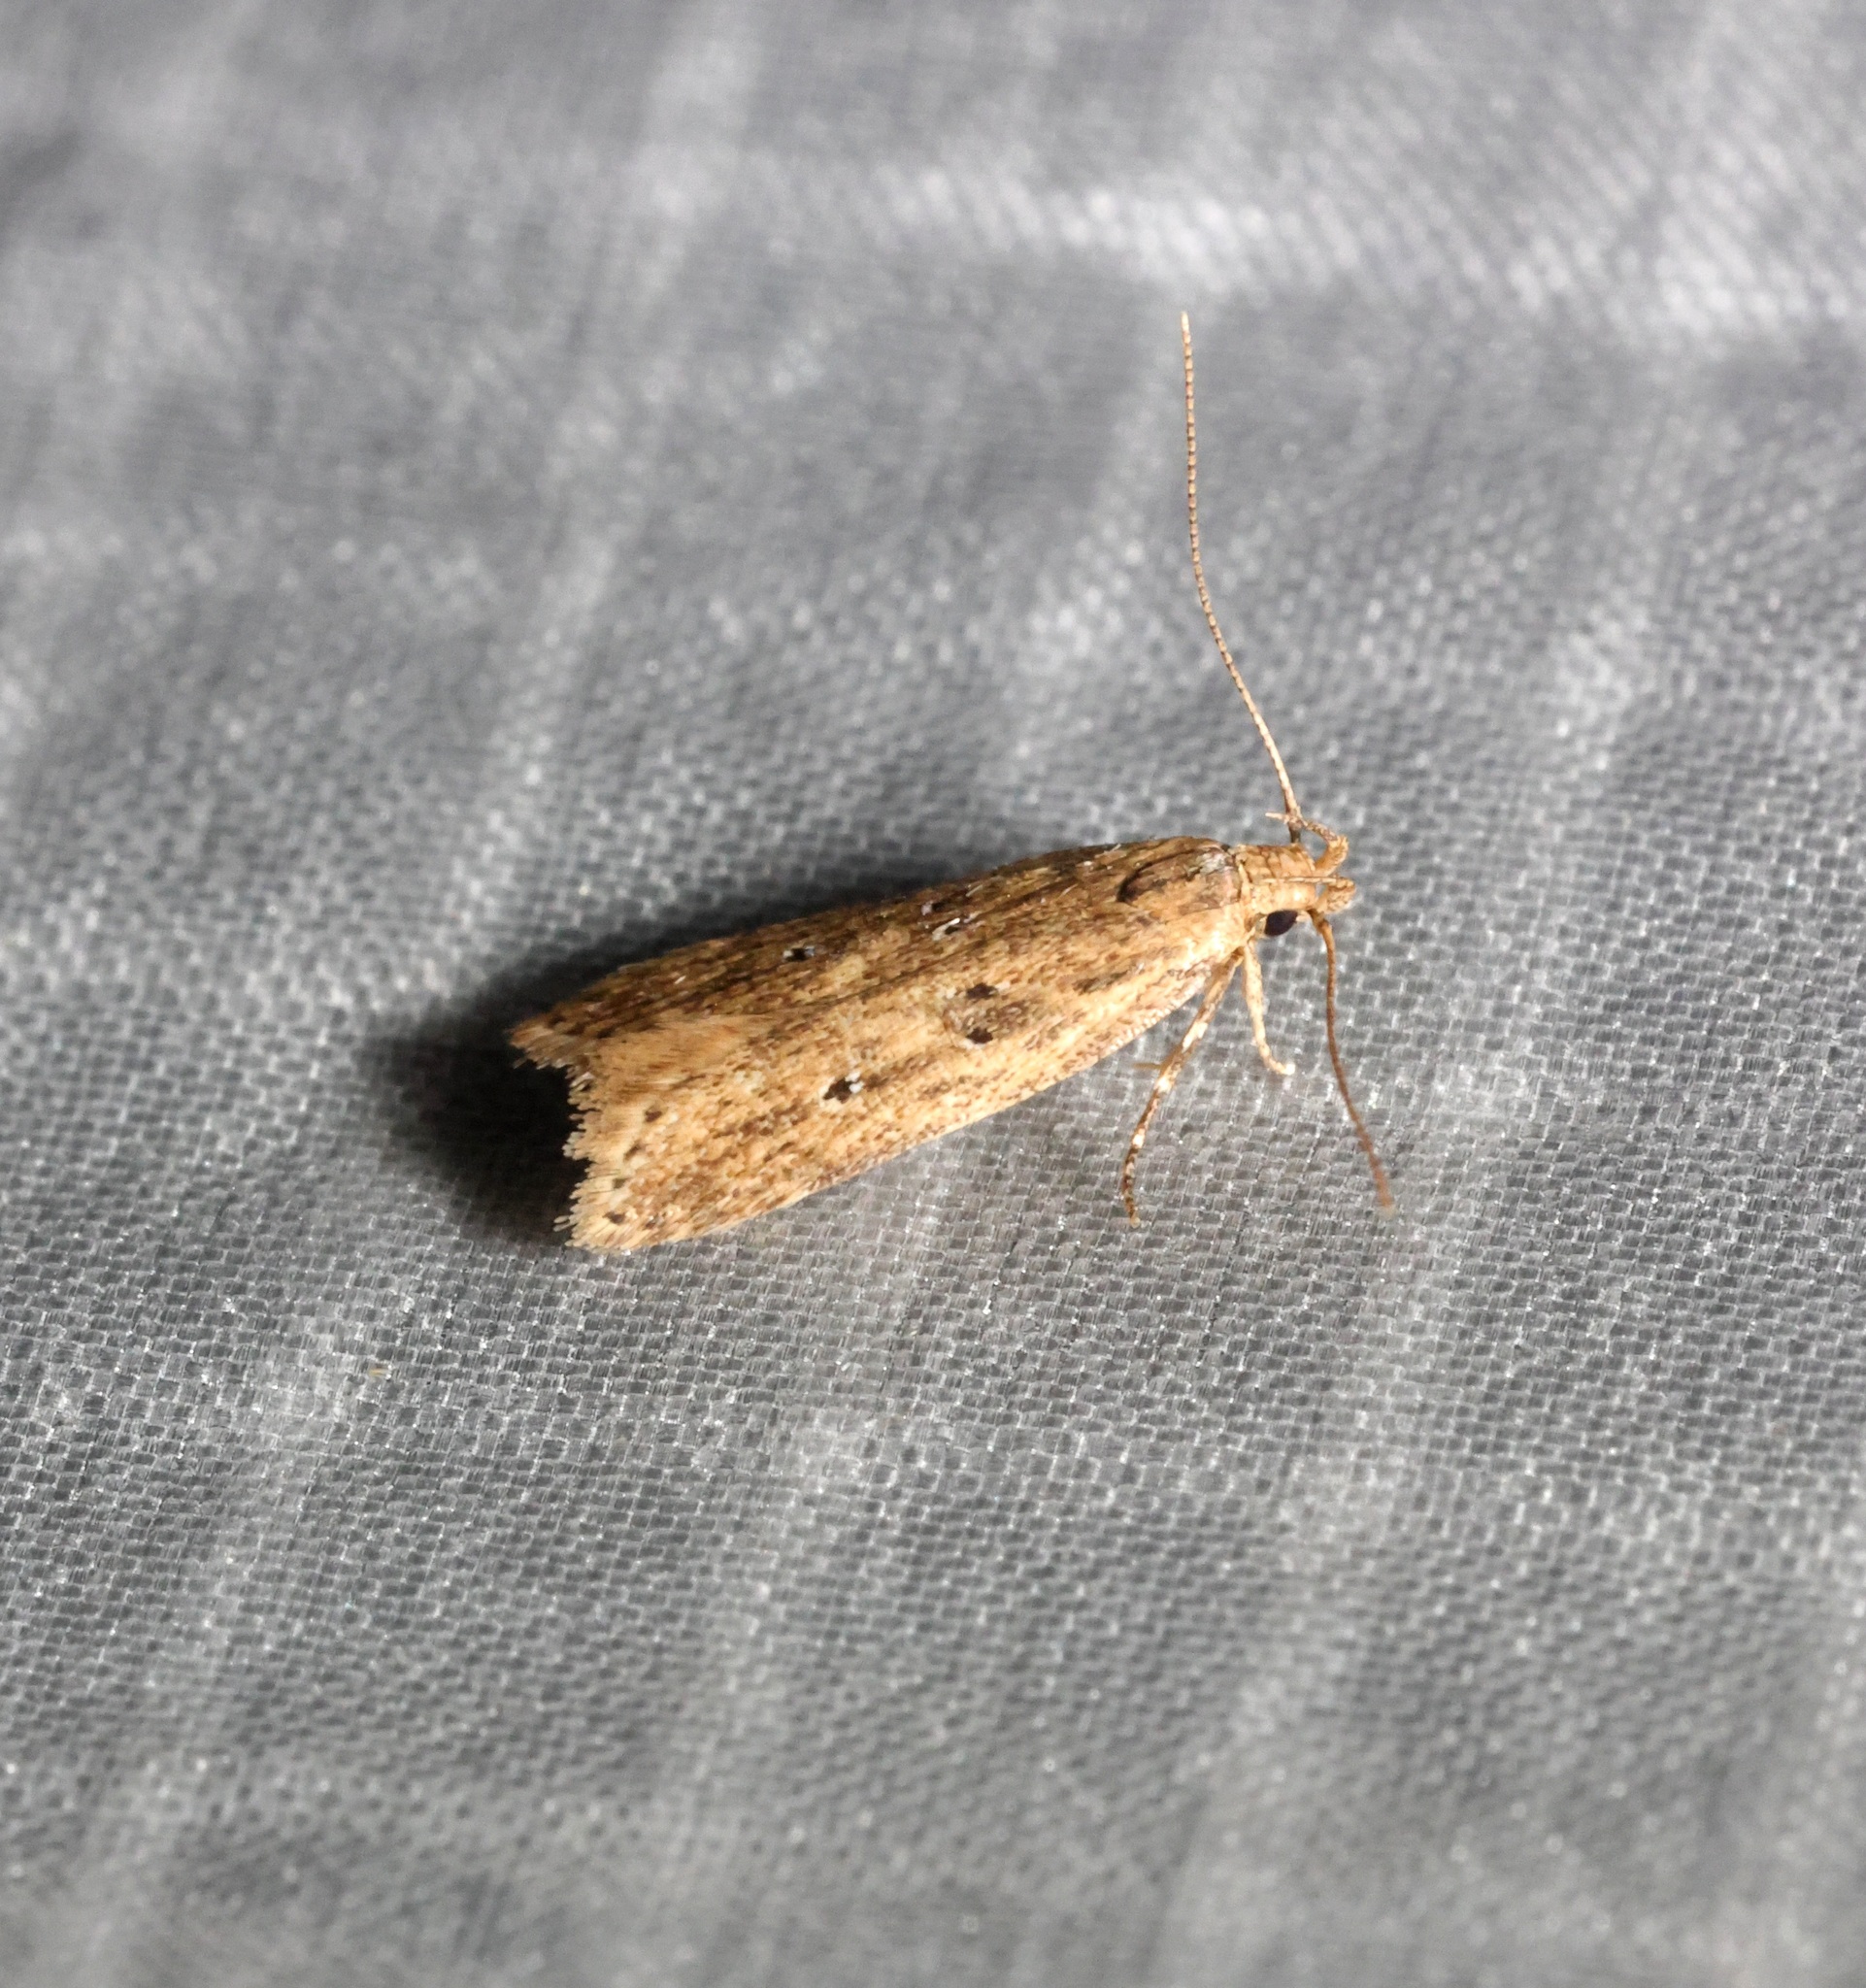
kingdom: Animalia
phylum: Arthropoda
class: Insecta
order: Lepidoptera
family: Gelechiidae
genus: Helcystogramma
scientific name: Helcystogramma convolvuli
